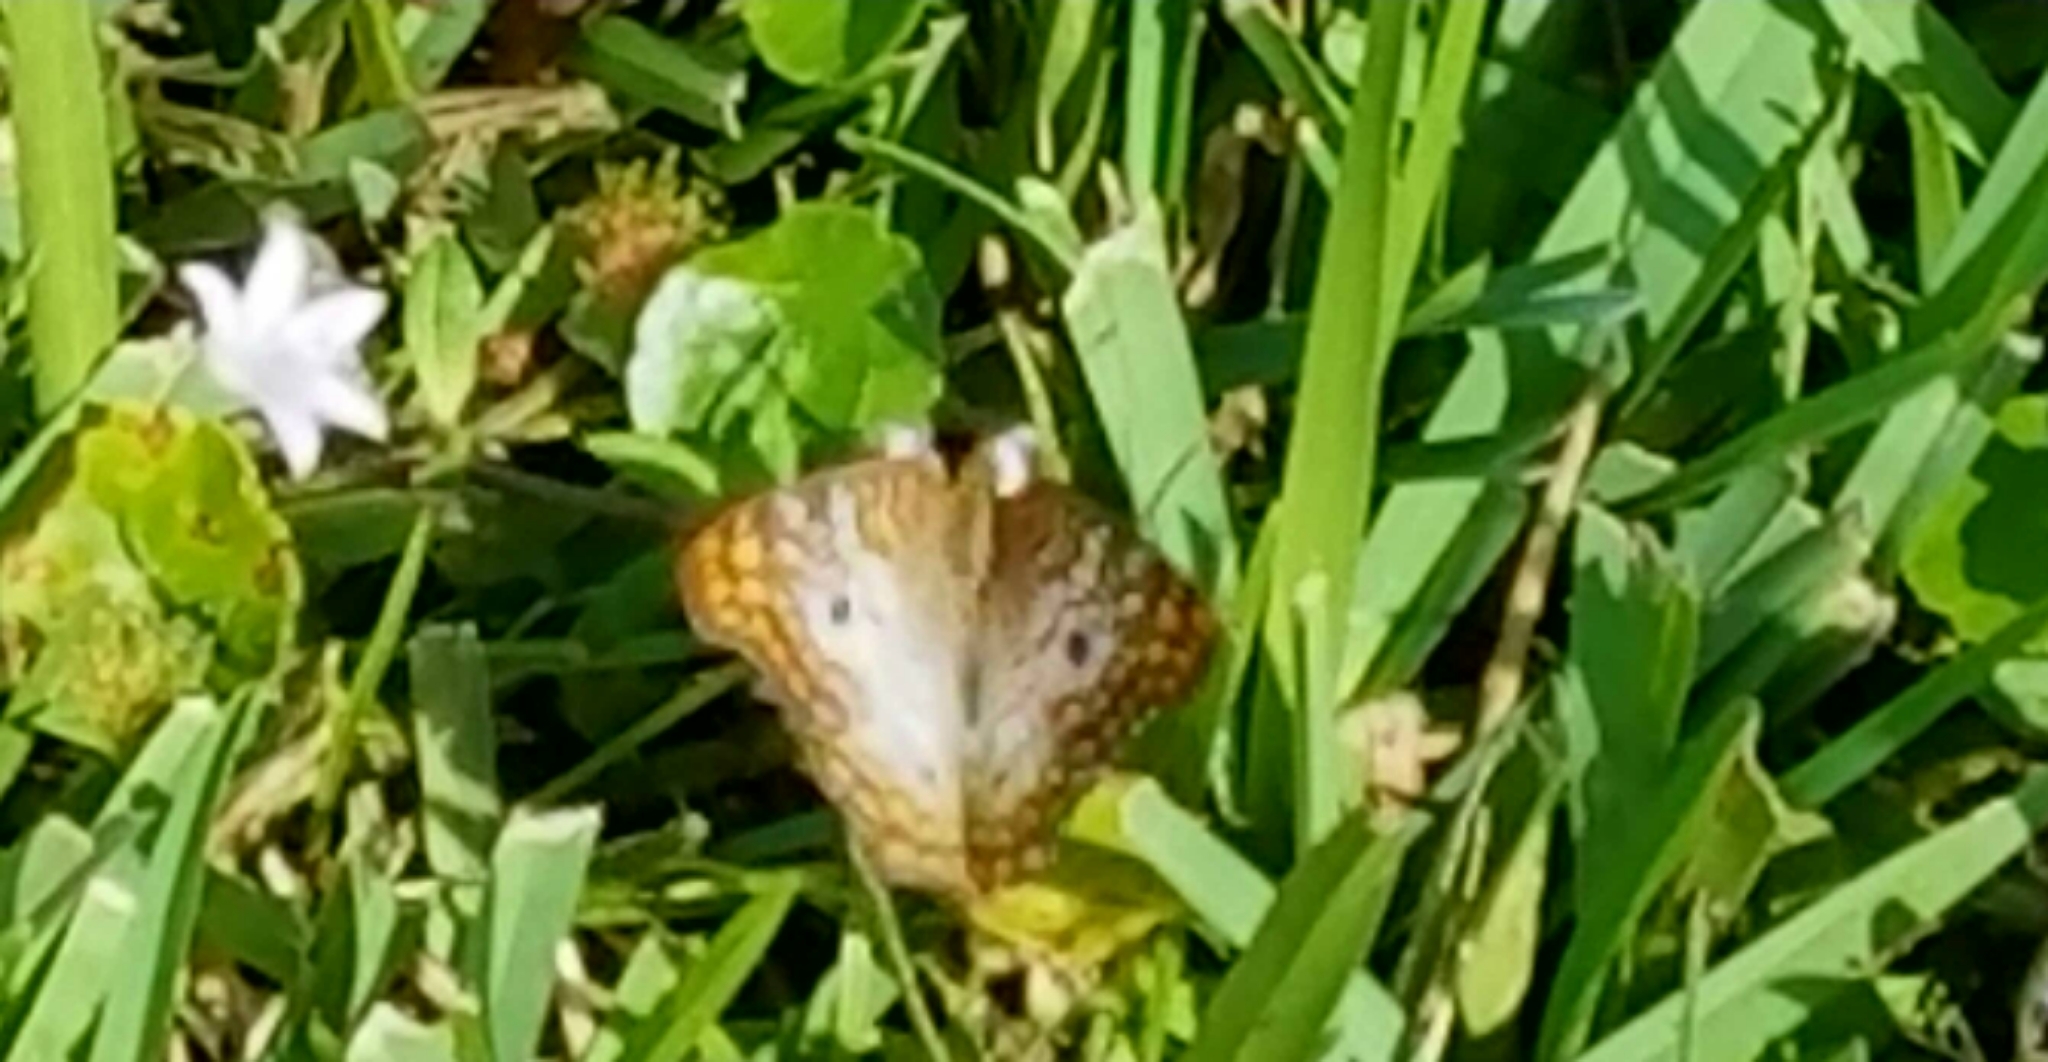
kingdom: Animalia
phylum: Arthropoda
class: Insecta
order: Lepidoptera
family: Nymphalidae
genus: Anartia
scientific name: Anartia jatrophae
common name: White peacock
